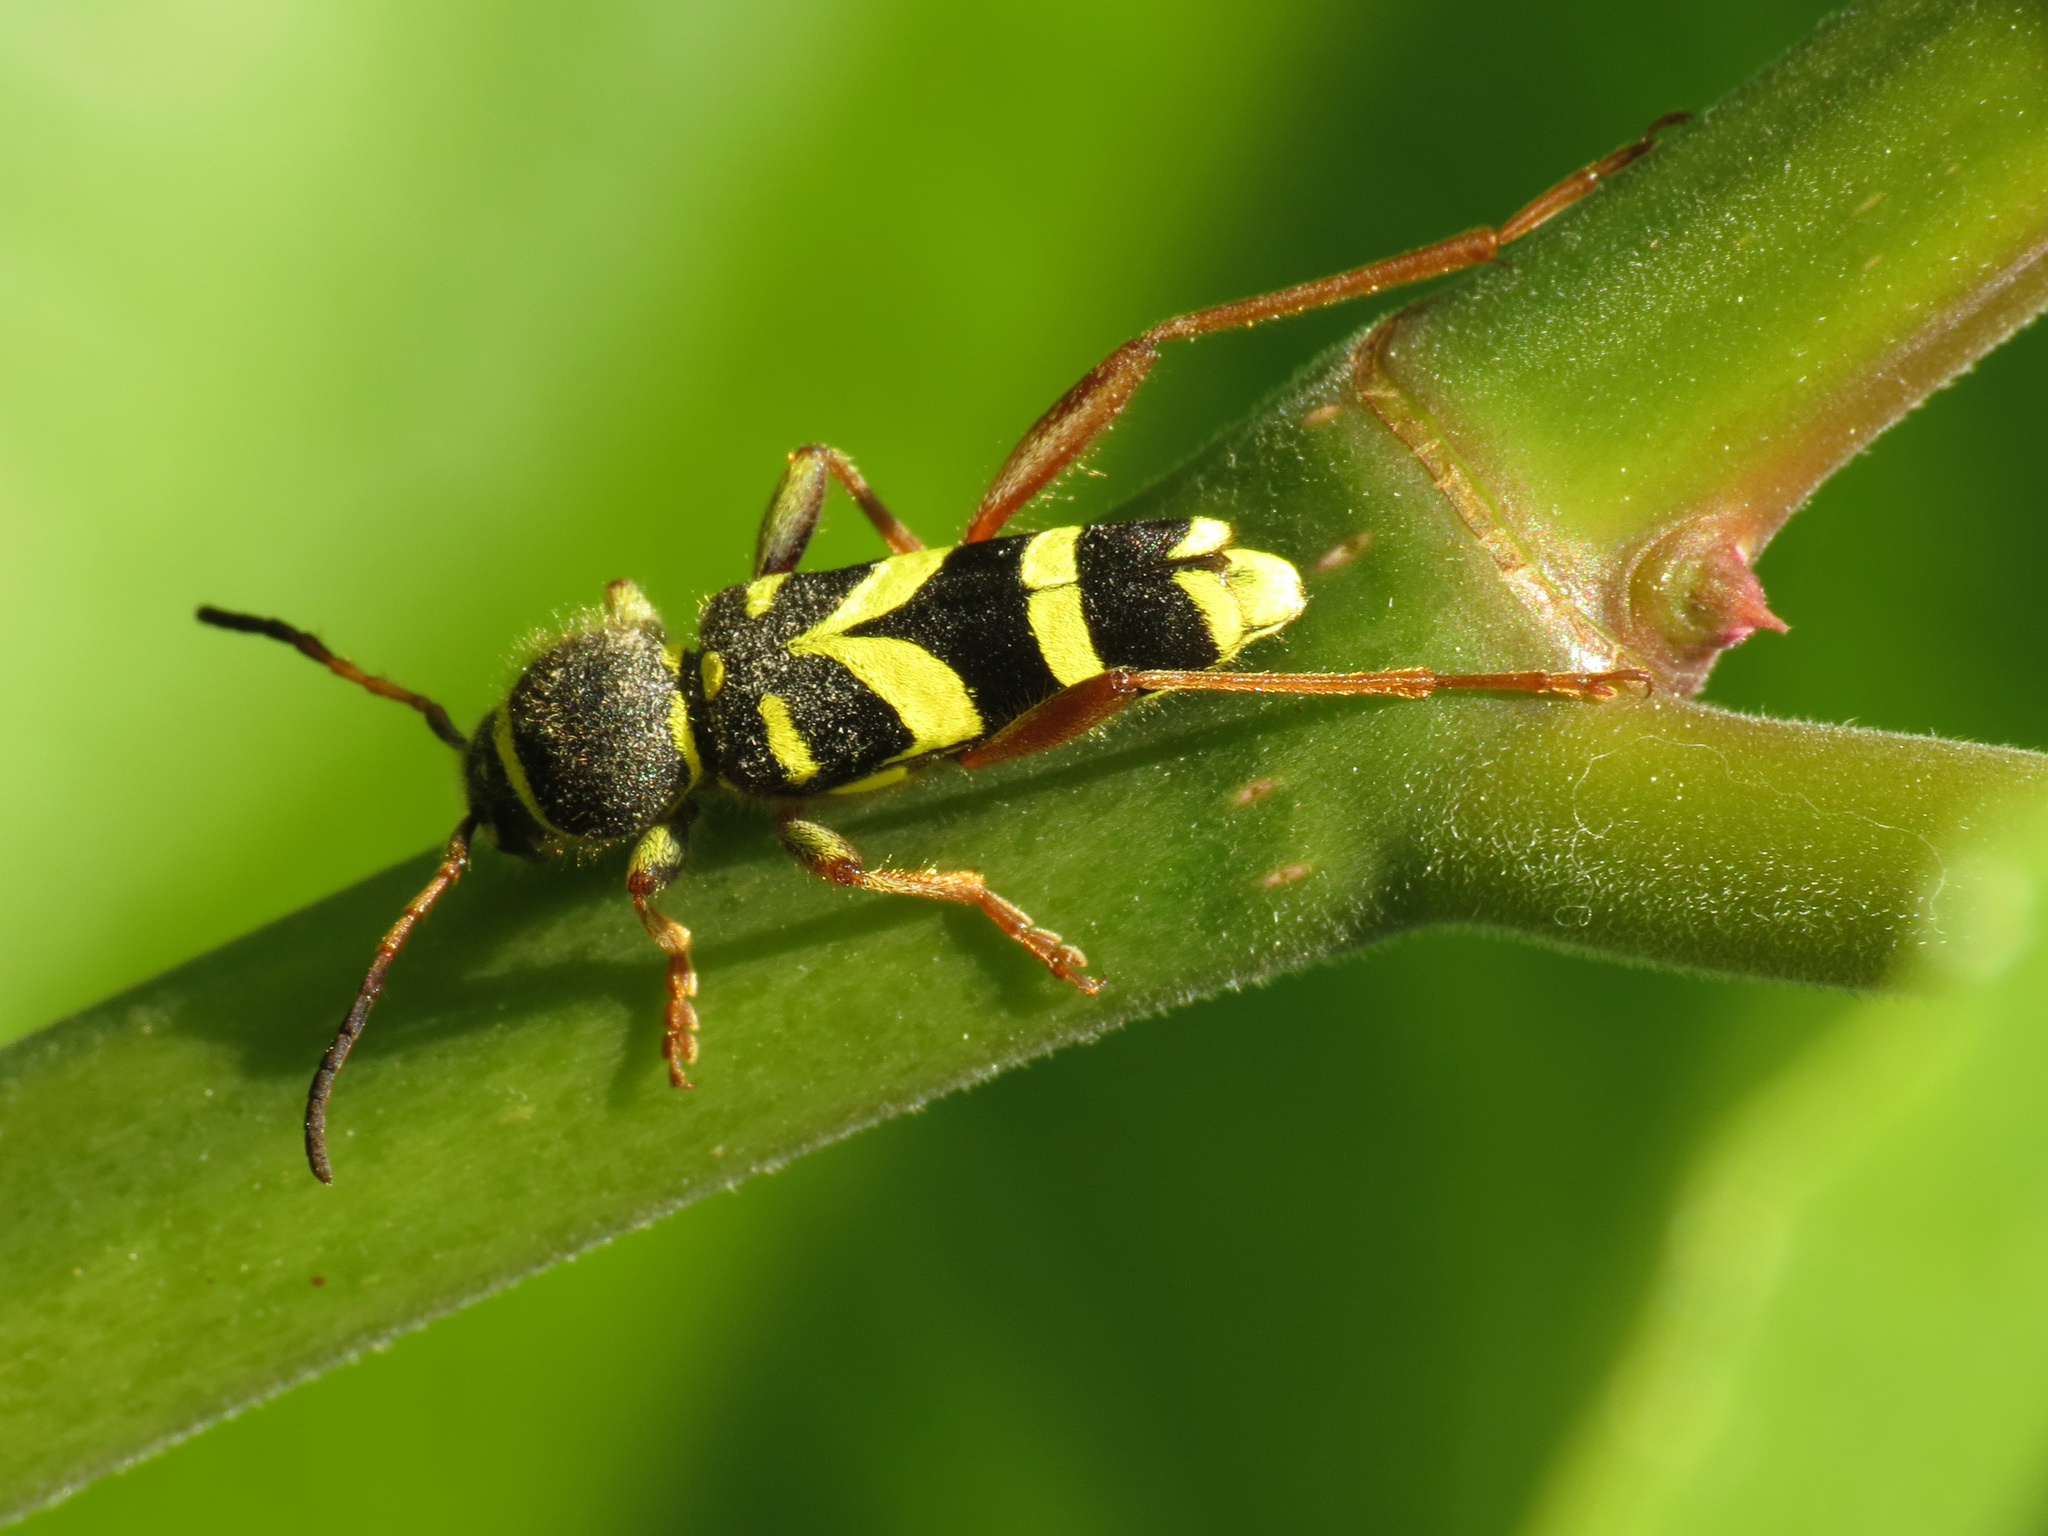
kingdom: Animalia
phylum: Arthropoda
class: Insecta
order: Coleoptera
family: Cerambycidae
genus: Clytus
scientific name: Clytus arietis
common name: Wasp beetle
